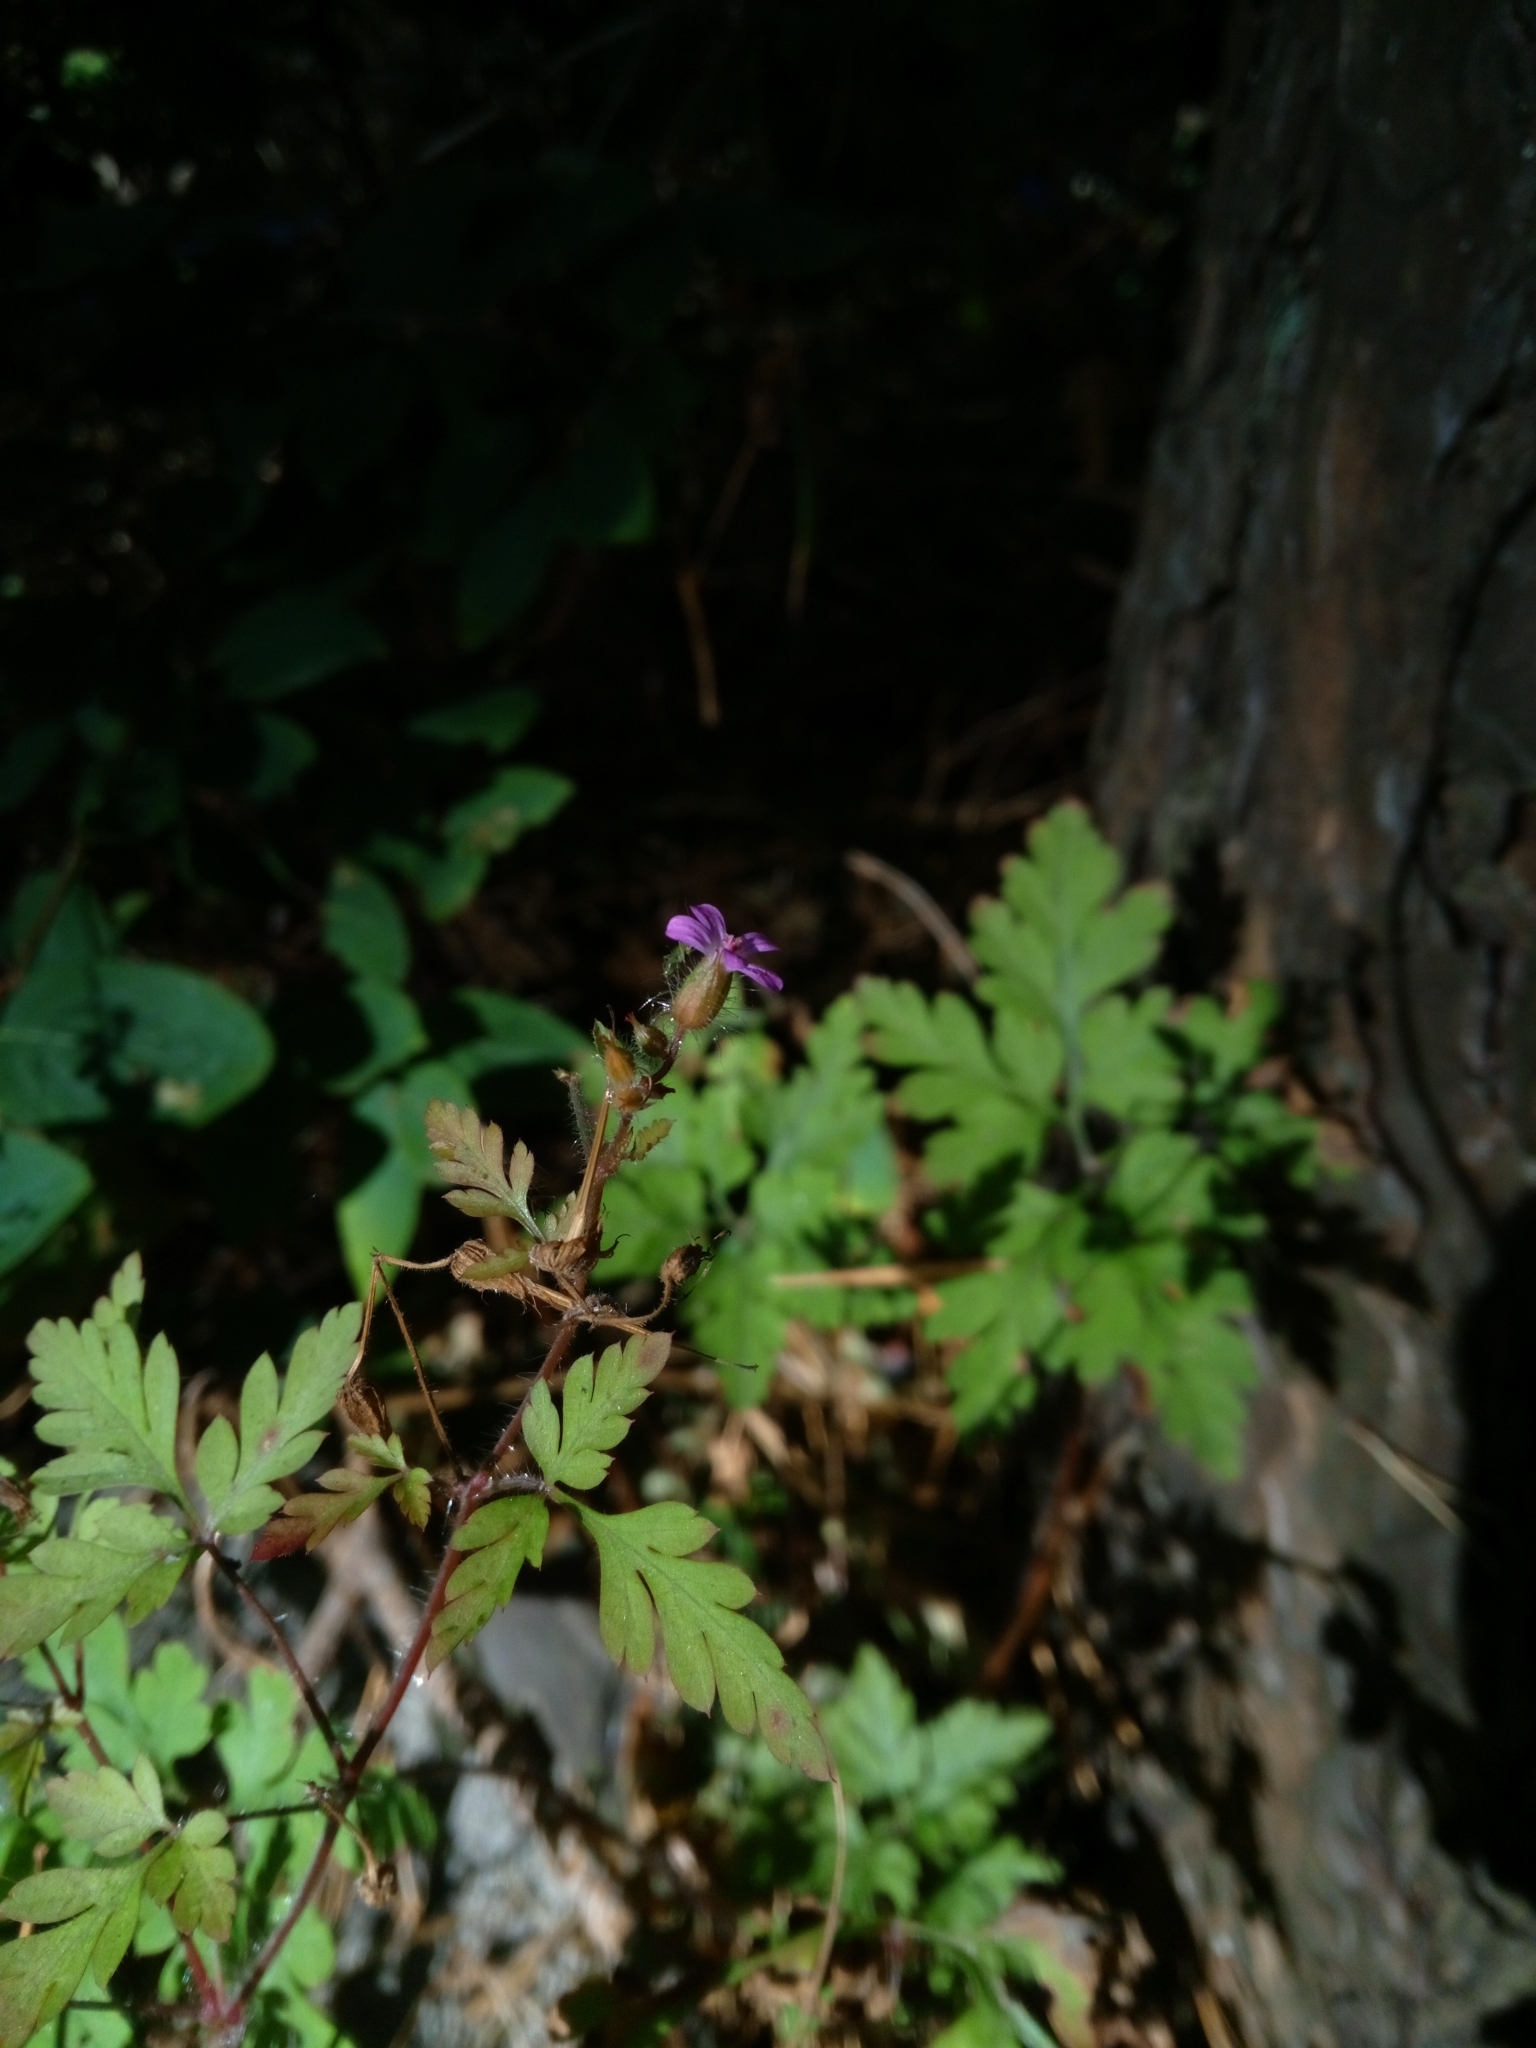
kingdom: Plantae
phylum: Tracheophyta
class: Magnoliopsida
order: Geraniales
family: Geraniaceae
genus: Geranium
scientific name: Geranium robertianum
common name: Herb-robert
